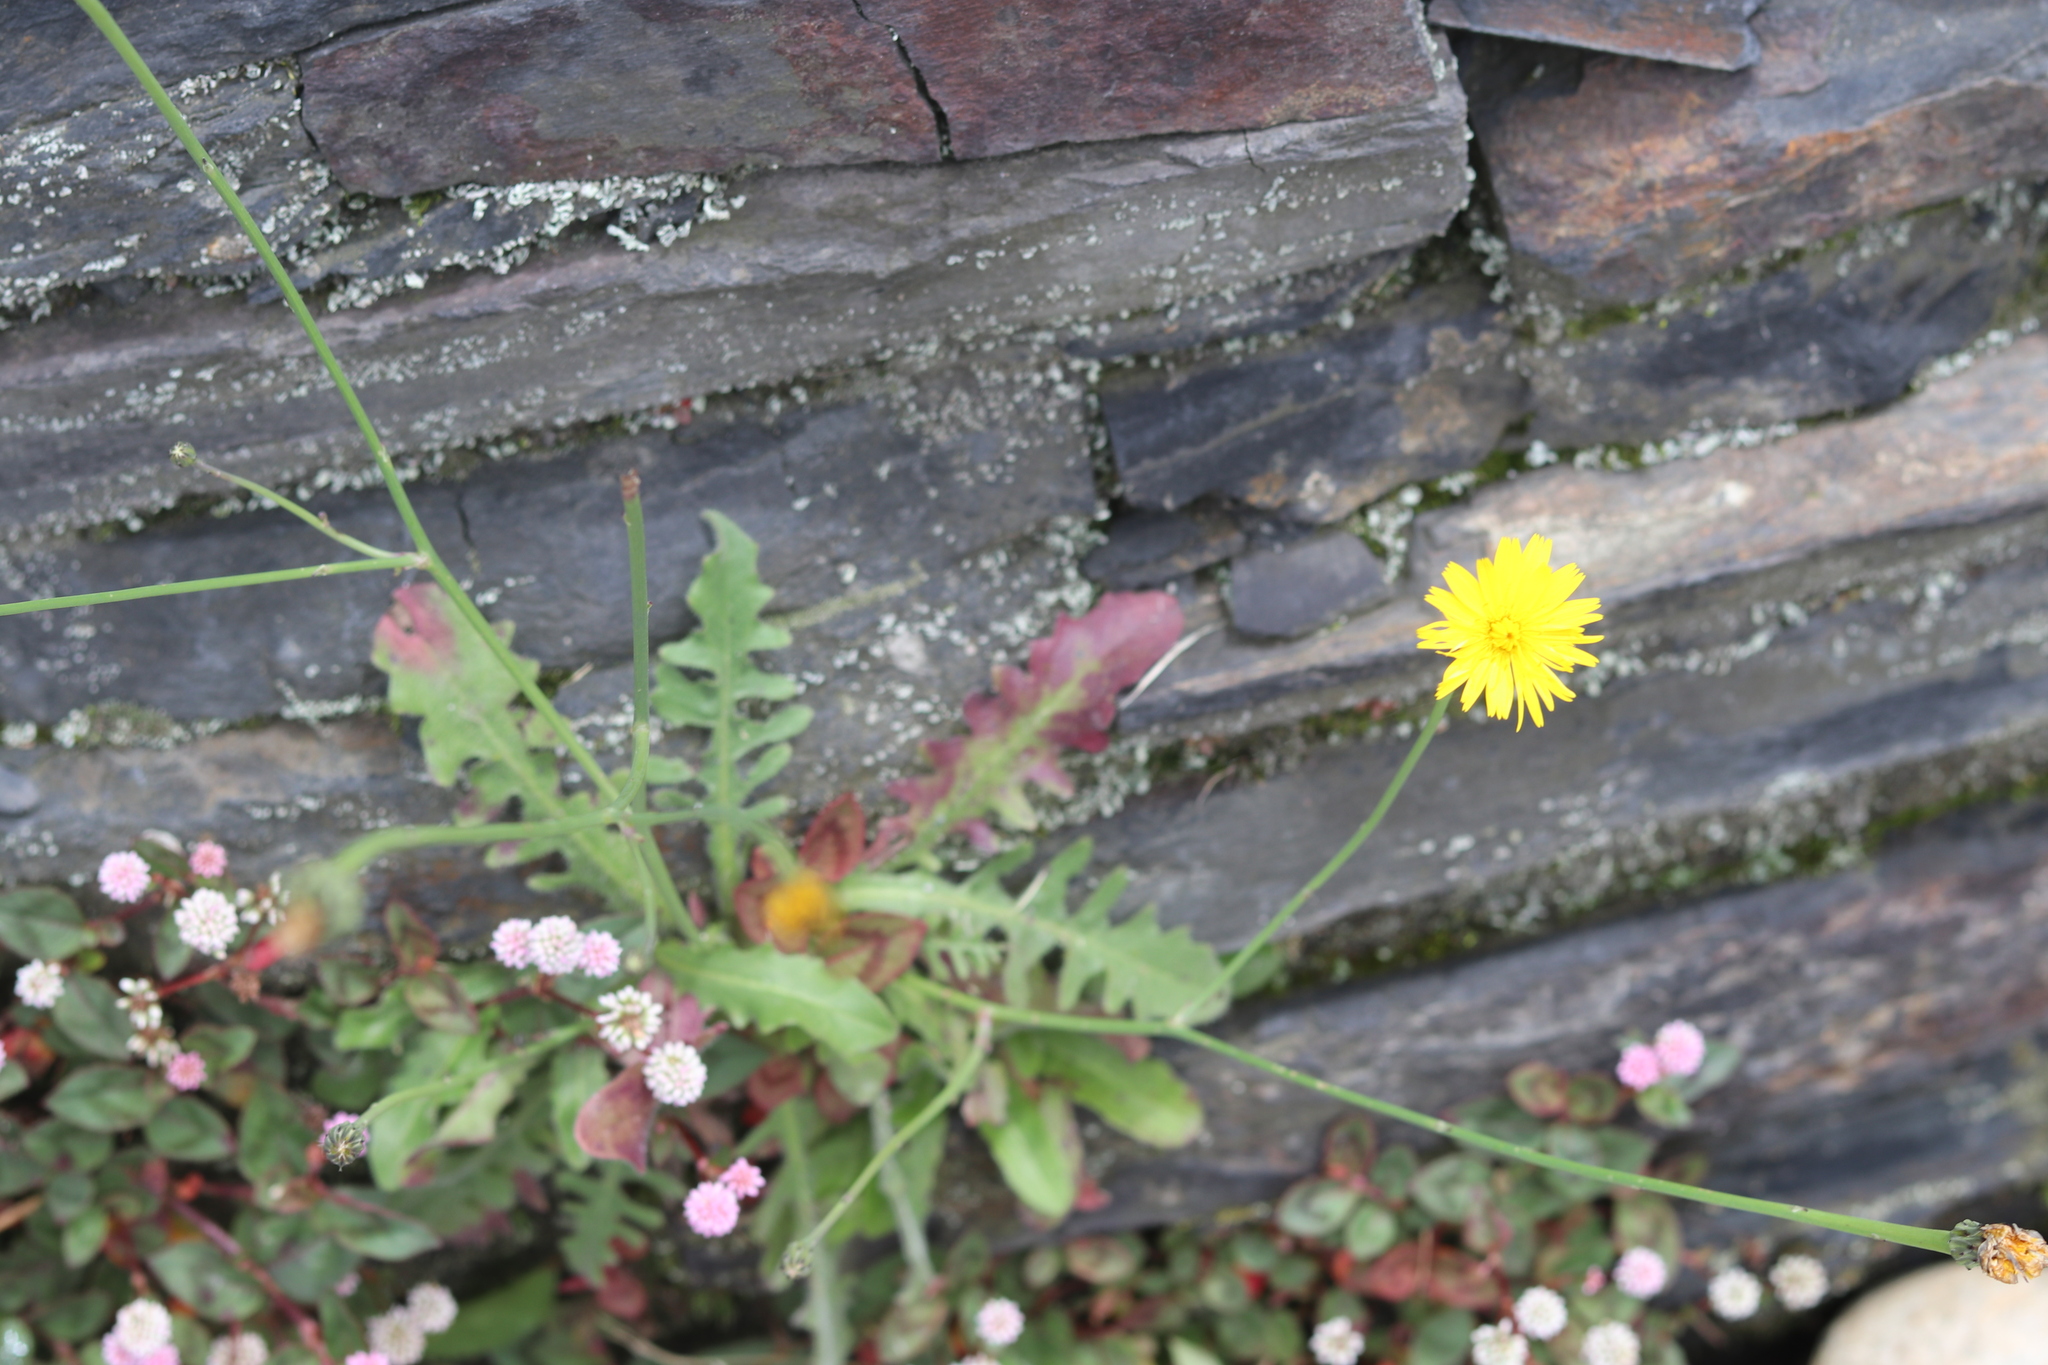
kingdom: Plantae
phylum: Tracheophyta
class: Magnoliopsida
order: Asterales
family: Asteraceae
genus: Hypochaeris
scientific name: Hypochaeris radicata
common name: Flatweed
